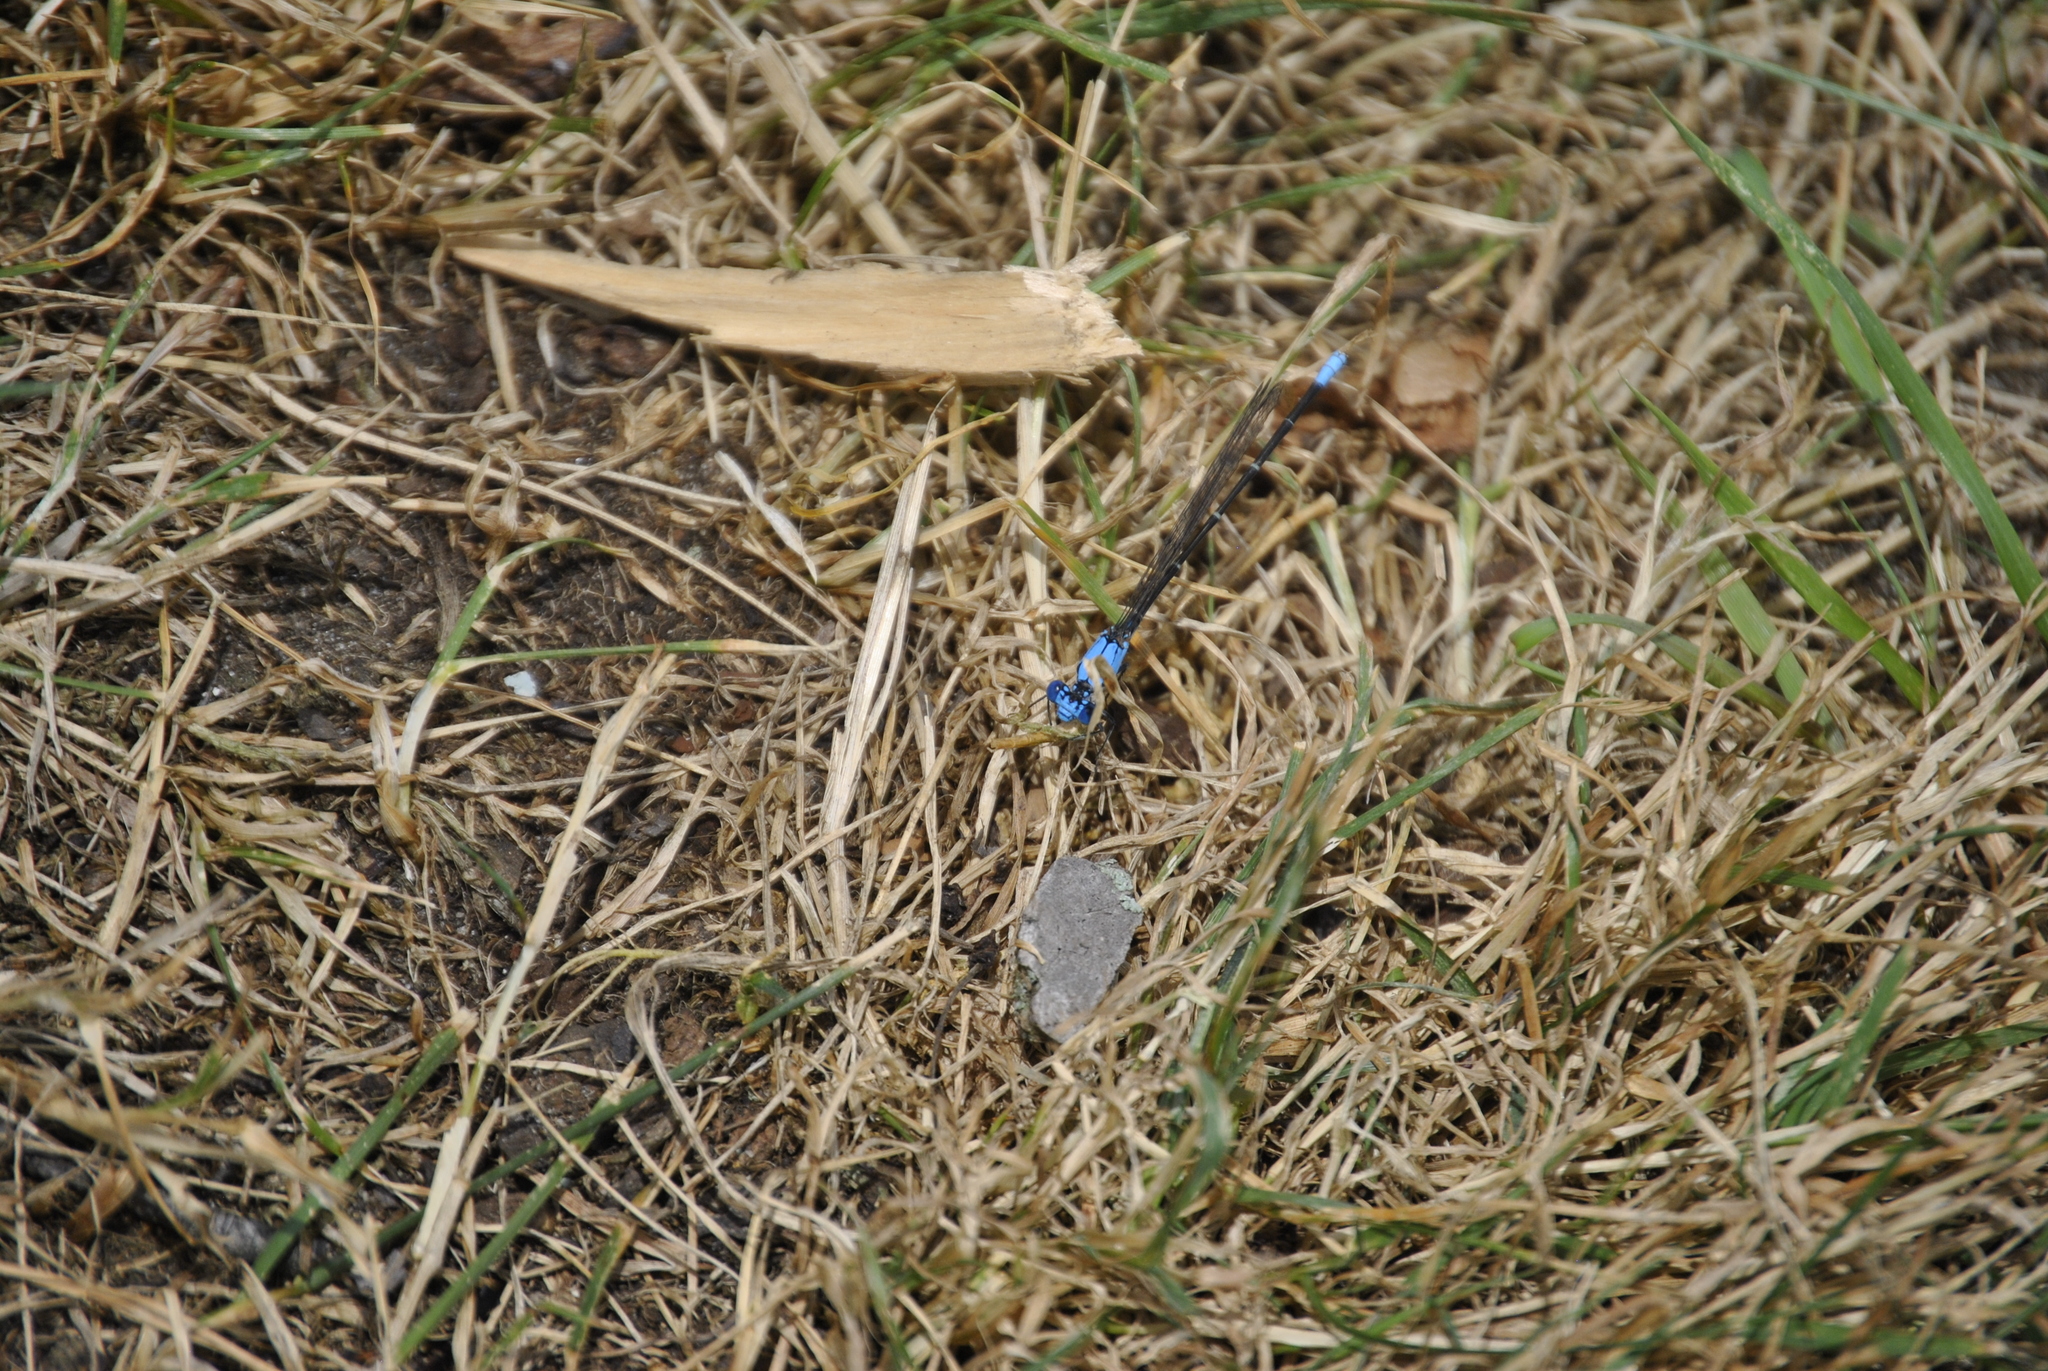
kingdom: Animalia
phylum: Arthropoda
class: Insecta
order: Odonata
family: Coenagrionidae
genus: Argia
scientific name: Argia apicalis
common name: Blue-fronted dancer
